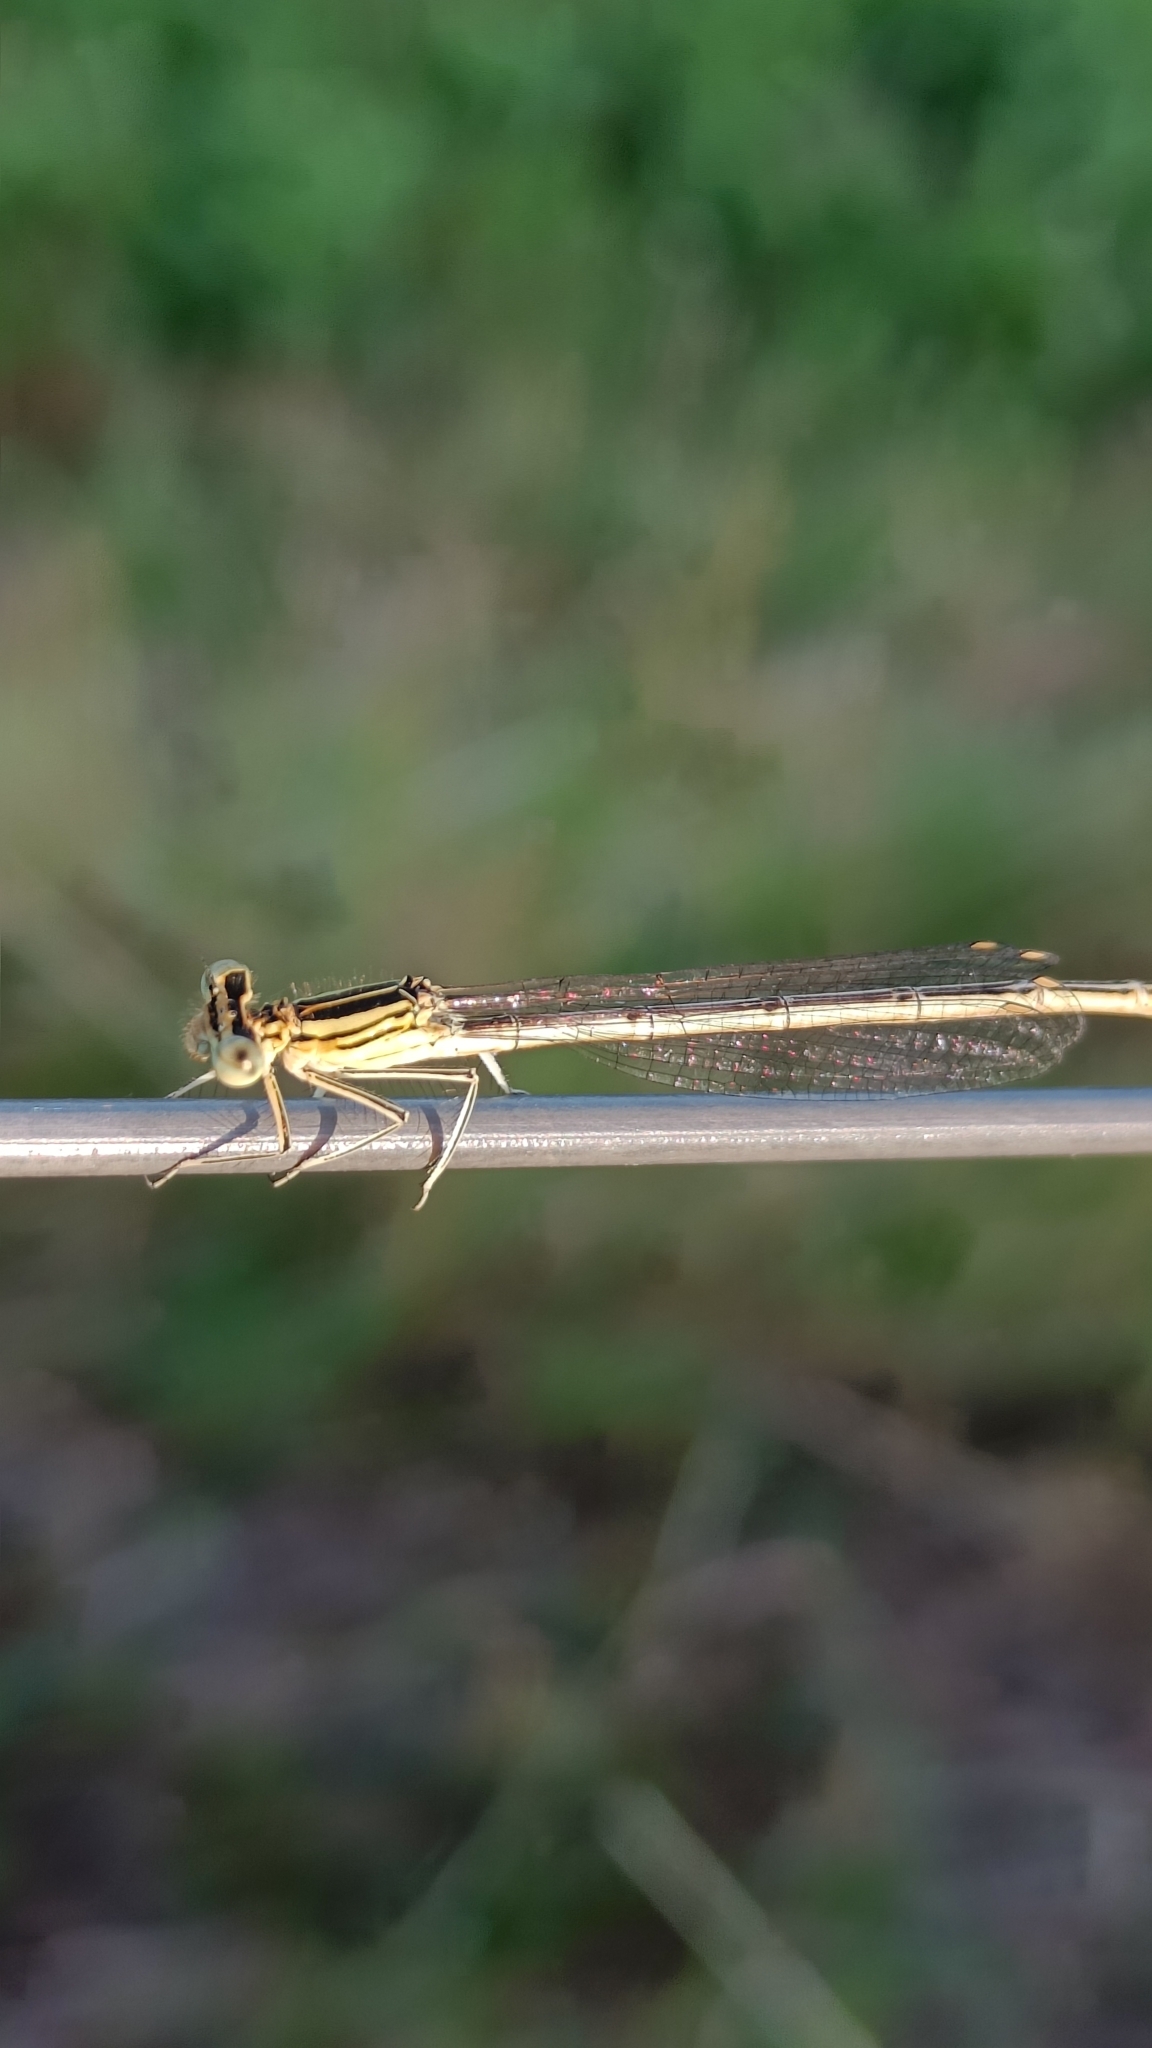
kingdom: Animalia
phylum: Arthropoda
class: Insecta
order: Odonata
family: Platycnemididae
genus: Platycnemis
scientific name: Platycnemis pennipes
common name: White-legged damselfly
